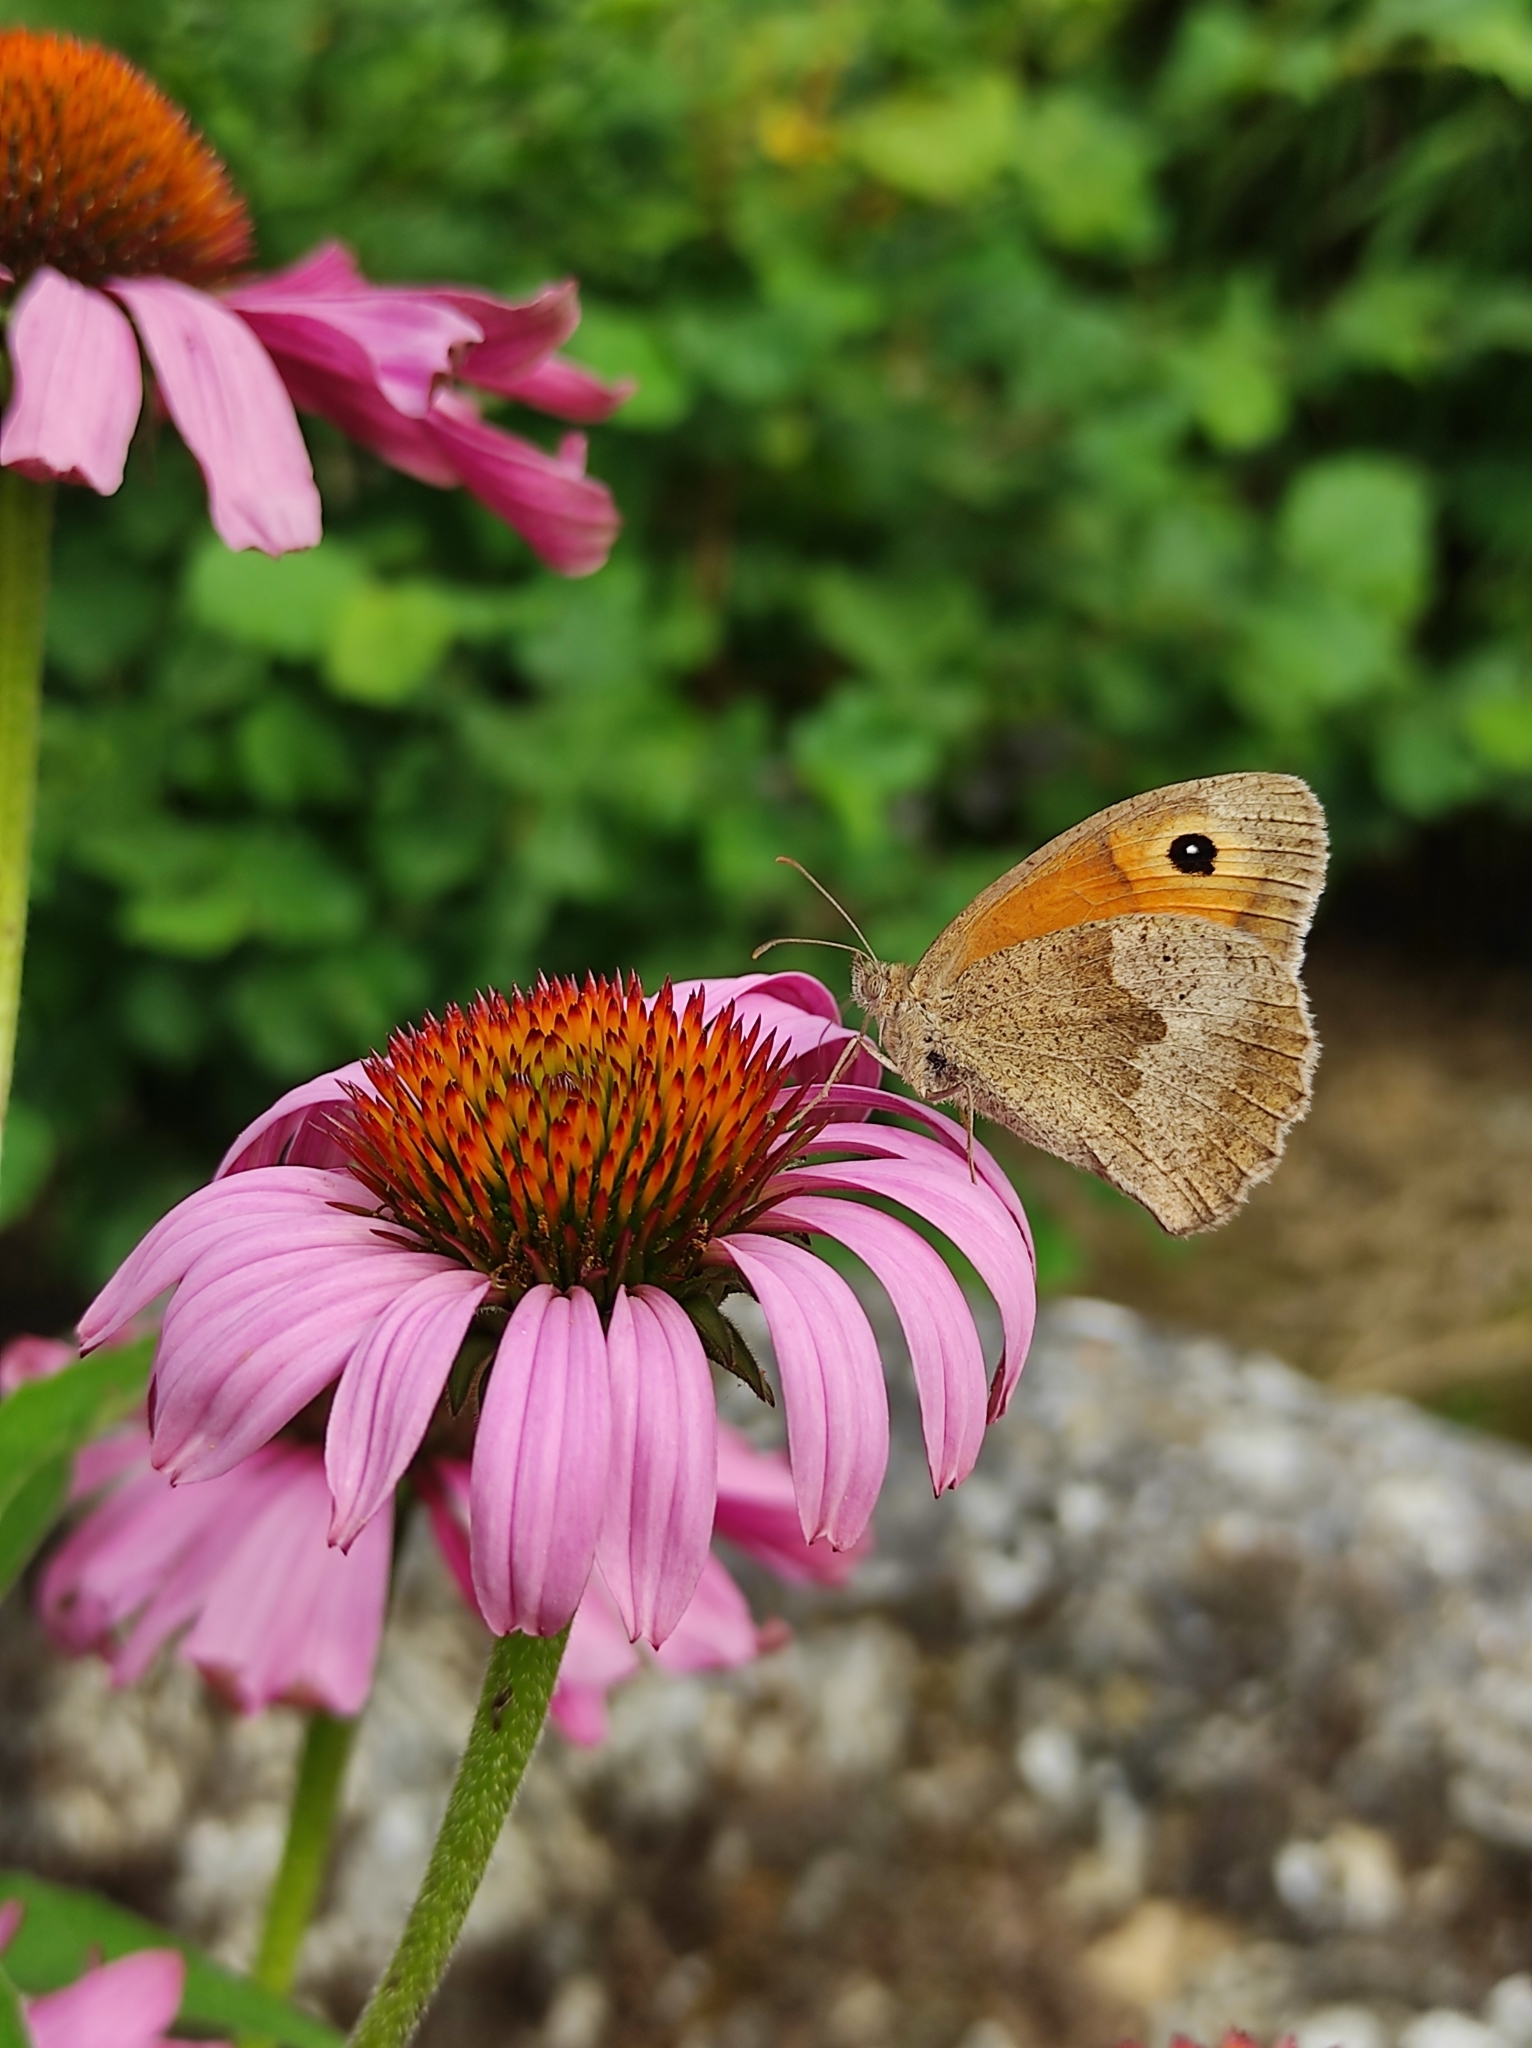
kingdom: Animalia
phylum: Arthropoda
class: Insecta
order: Lepidoptera
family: Nymphalidae
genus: Maniola
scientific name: Maniola jurtina
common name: Meadow brown
